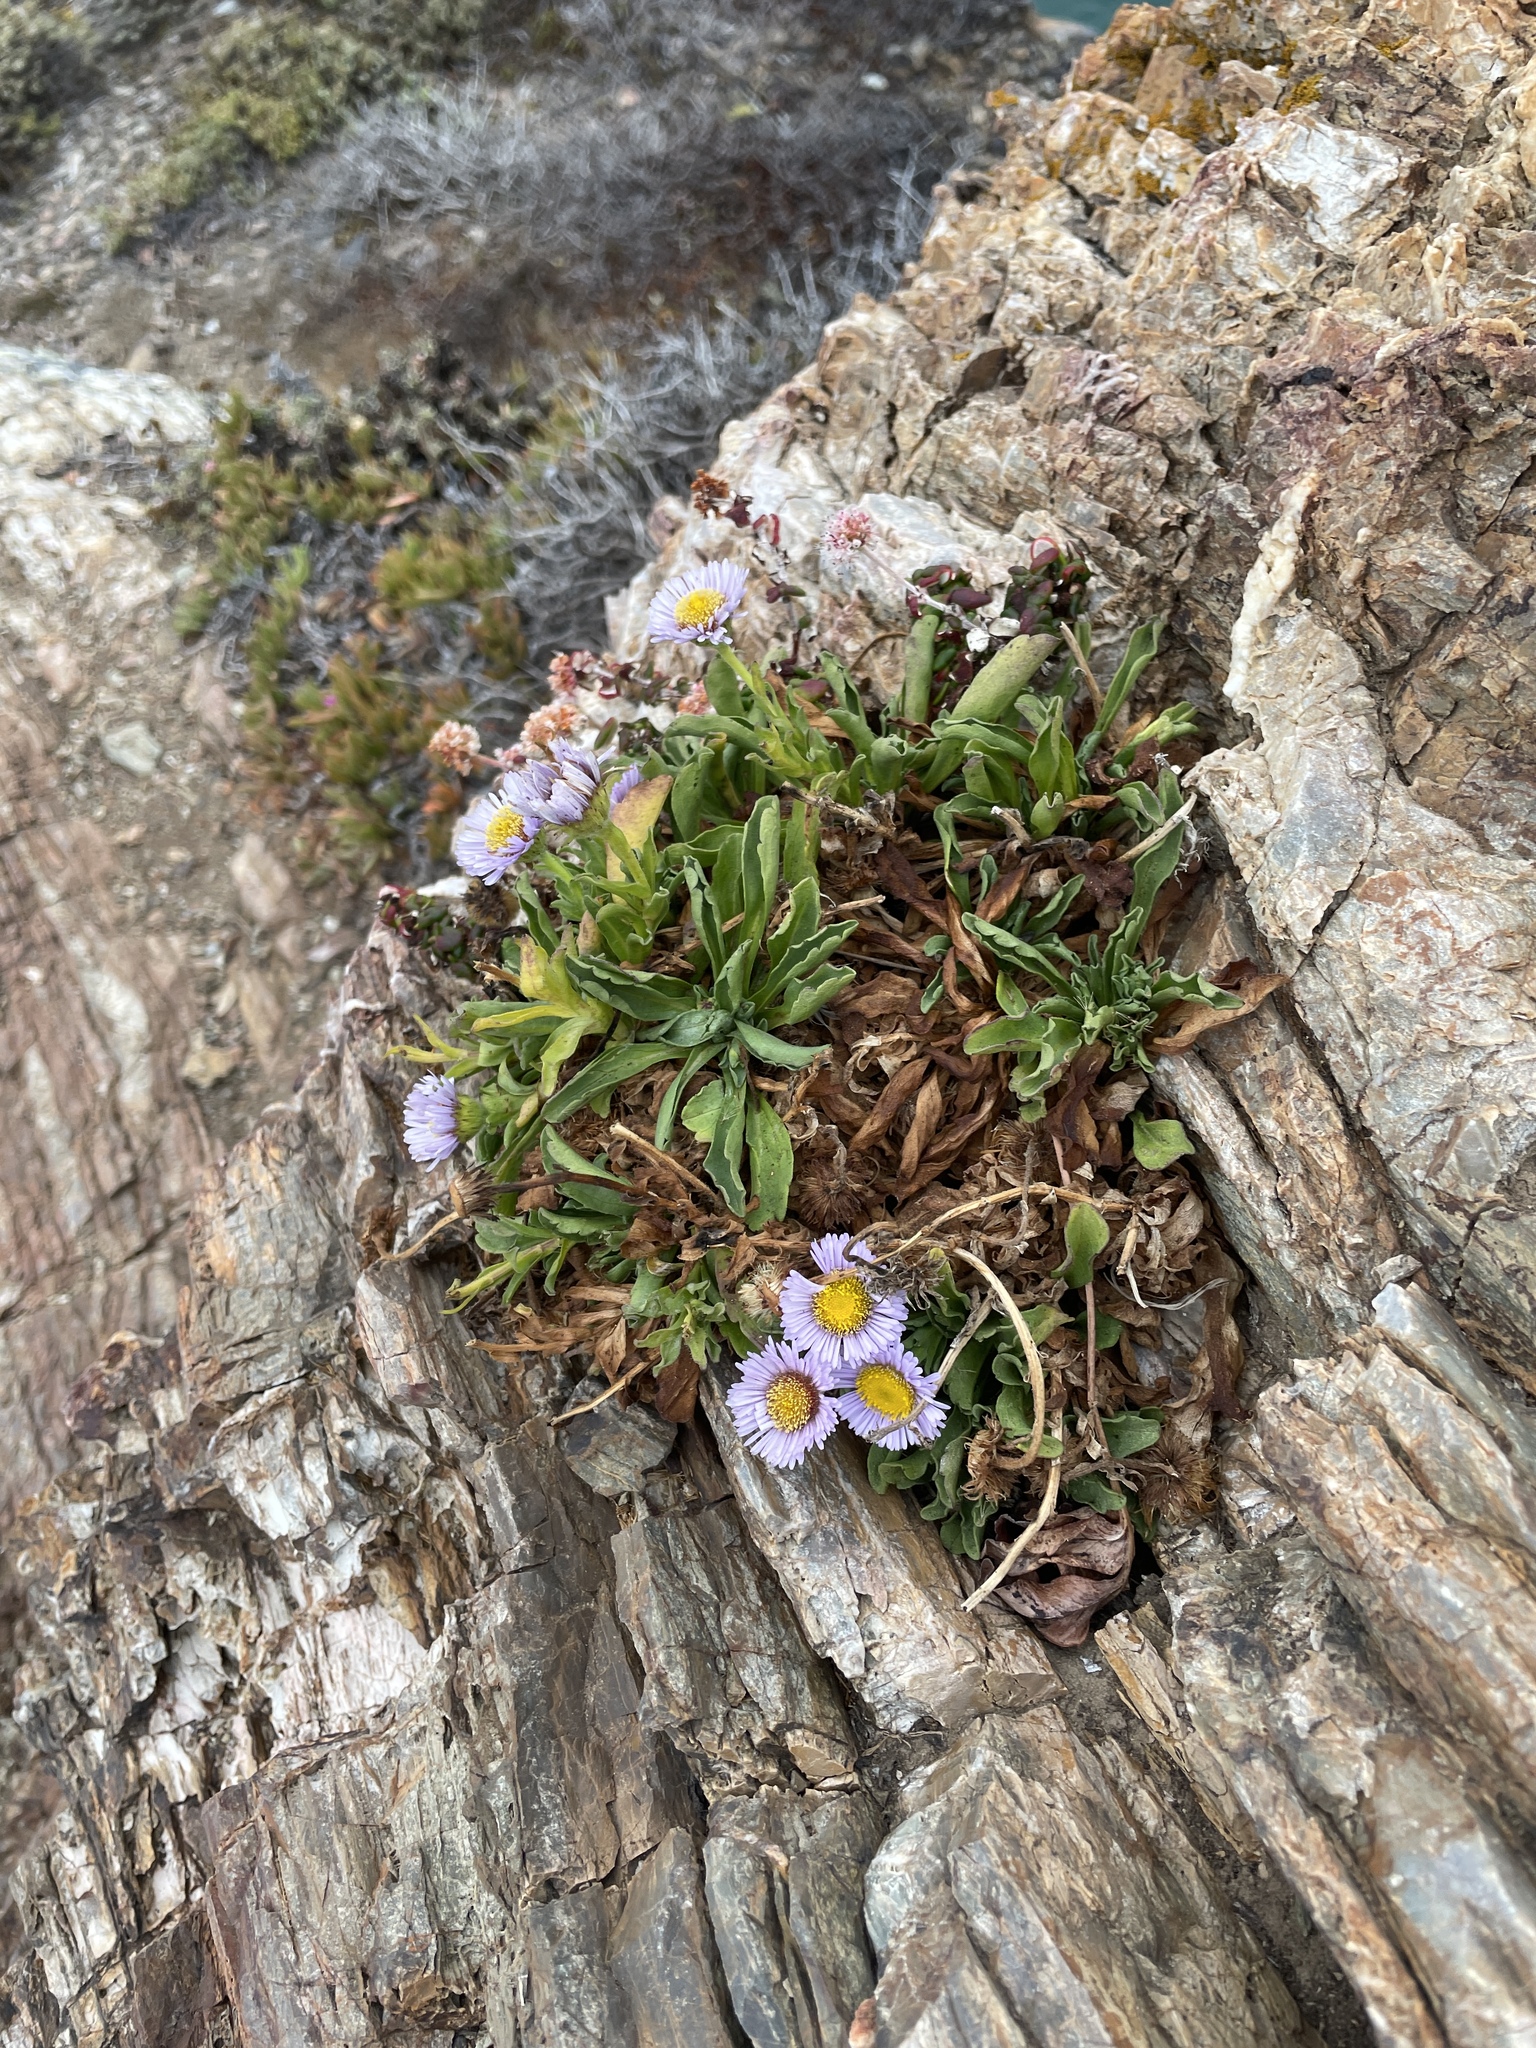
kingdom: Plantae
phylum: Tracheophyta
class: Magnoliopsida
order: Asterales
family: Asteraceae
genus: Erigeron
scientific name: Erigeron glaucus
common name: Seaside daisy
